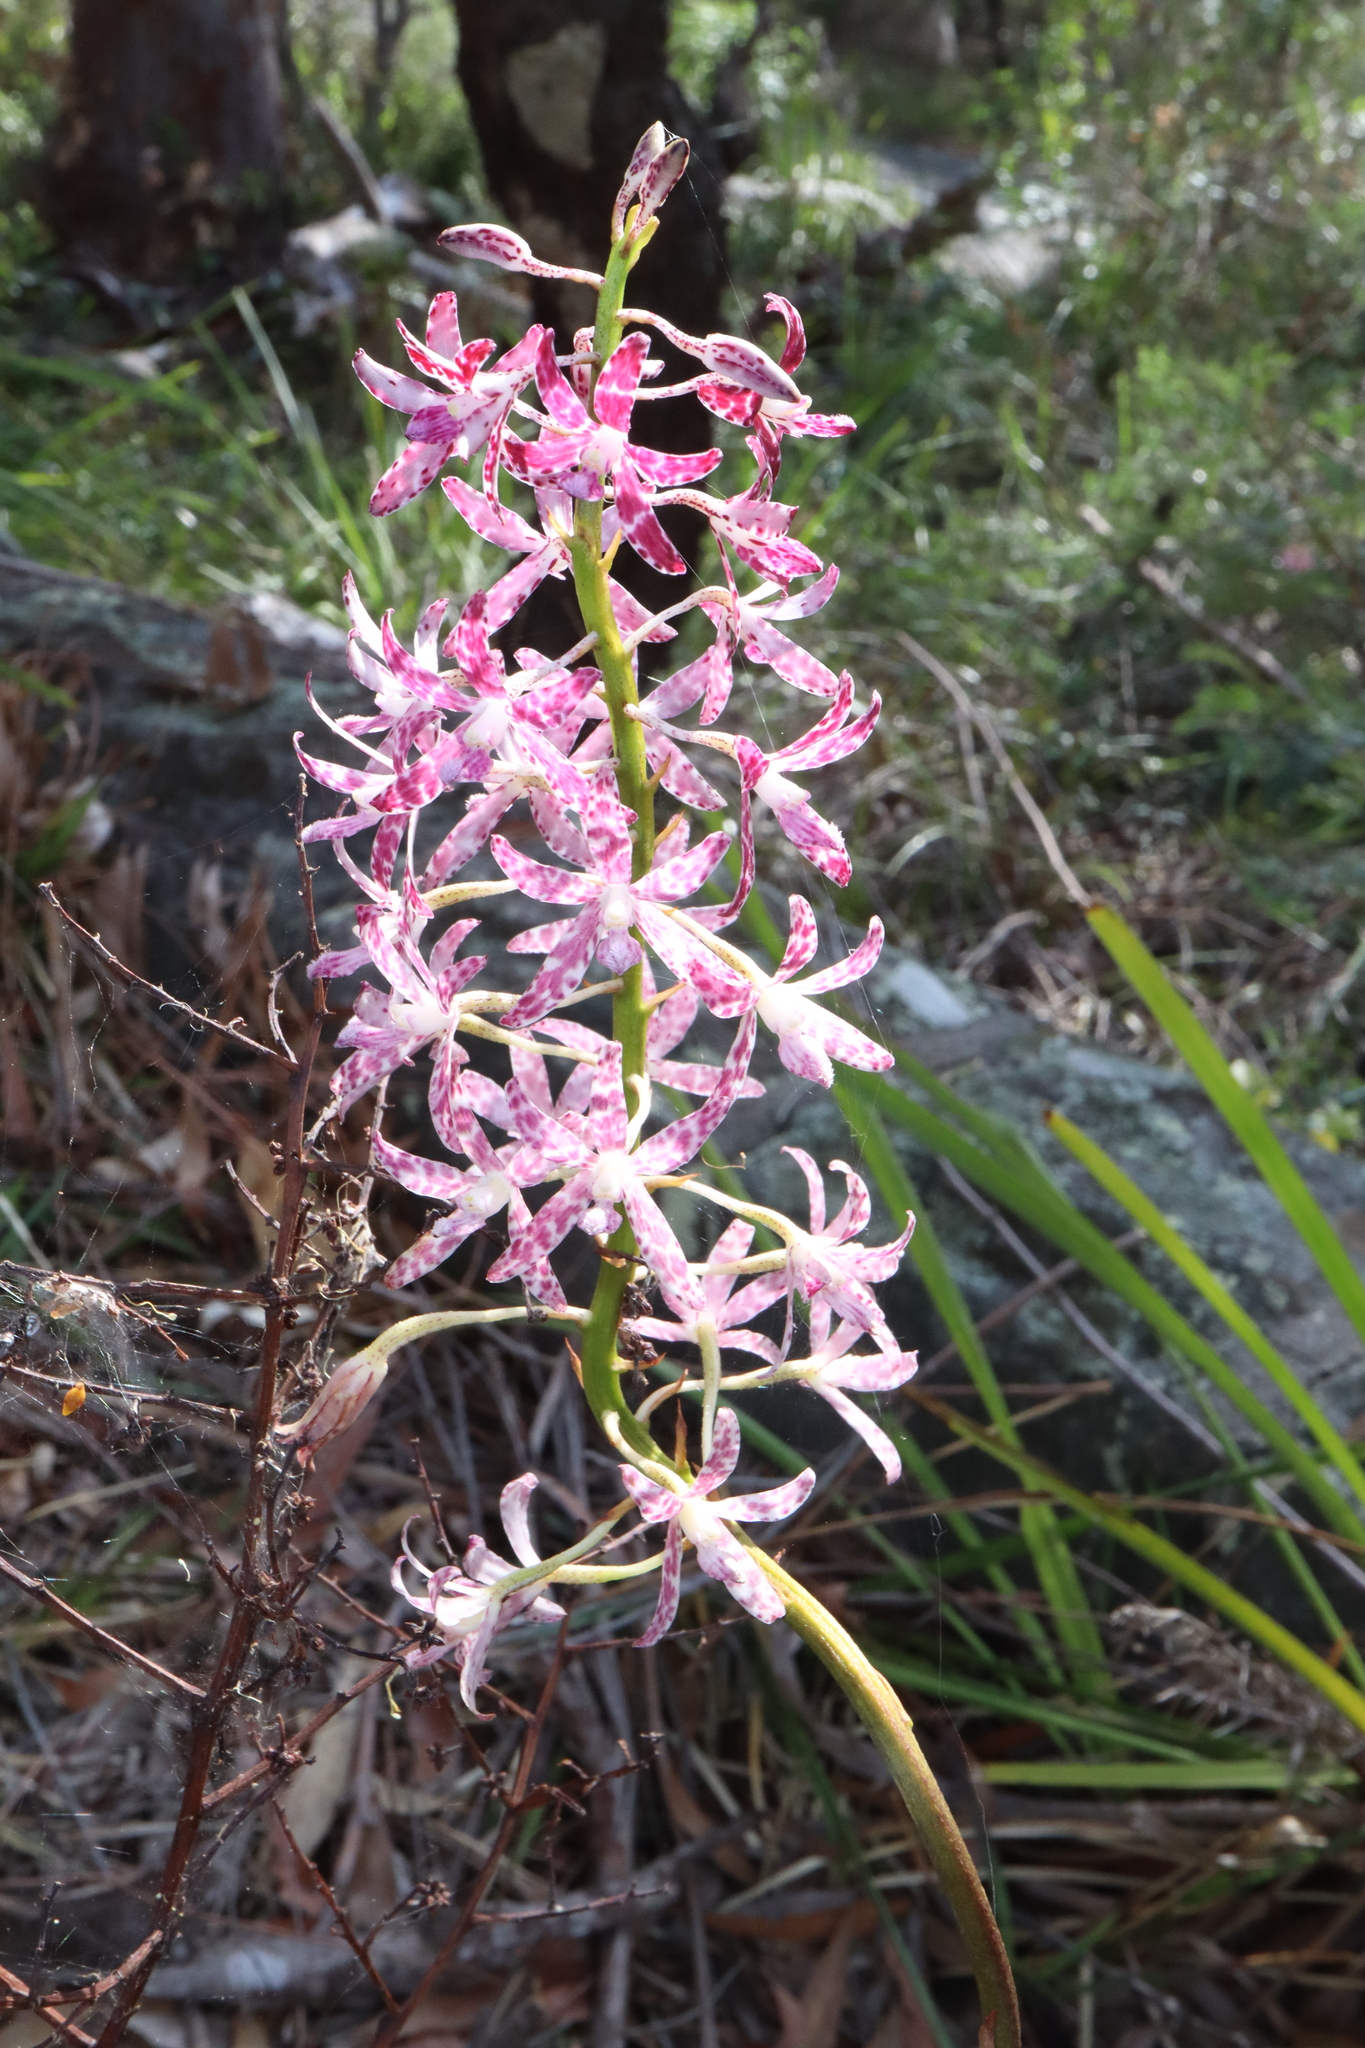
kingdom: Plantae
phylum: Tracheophyta
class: Liliopsida
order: Asparagales
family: Orchidaceae
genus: Dipodium
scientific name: Dipodium variegatum
